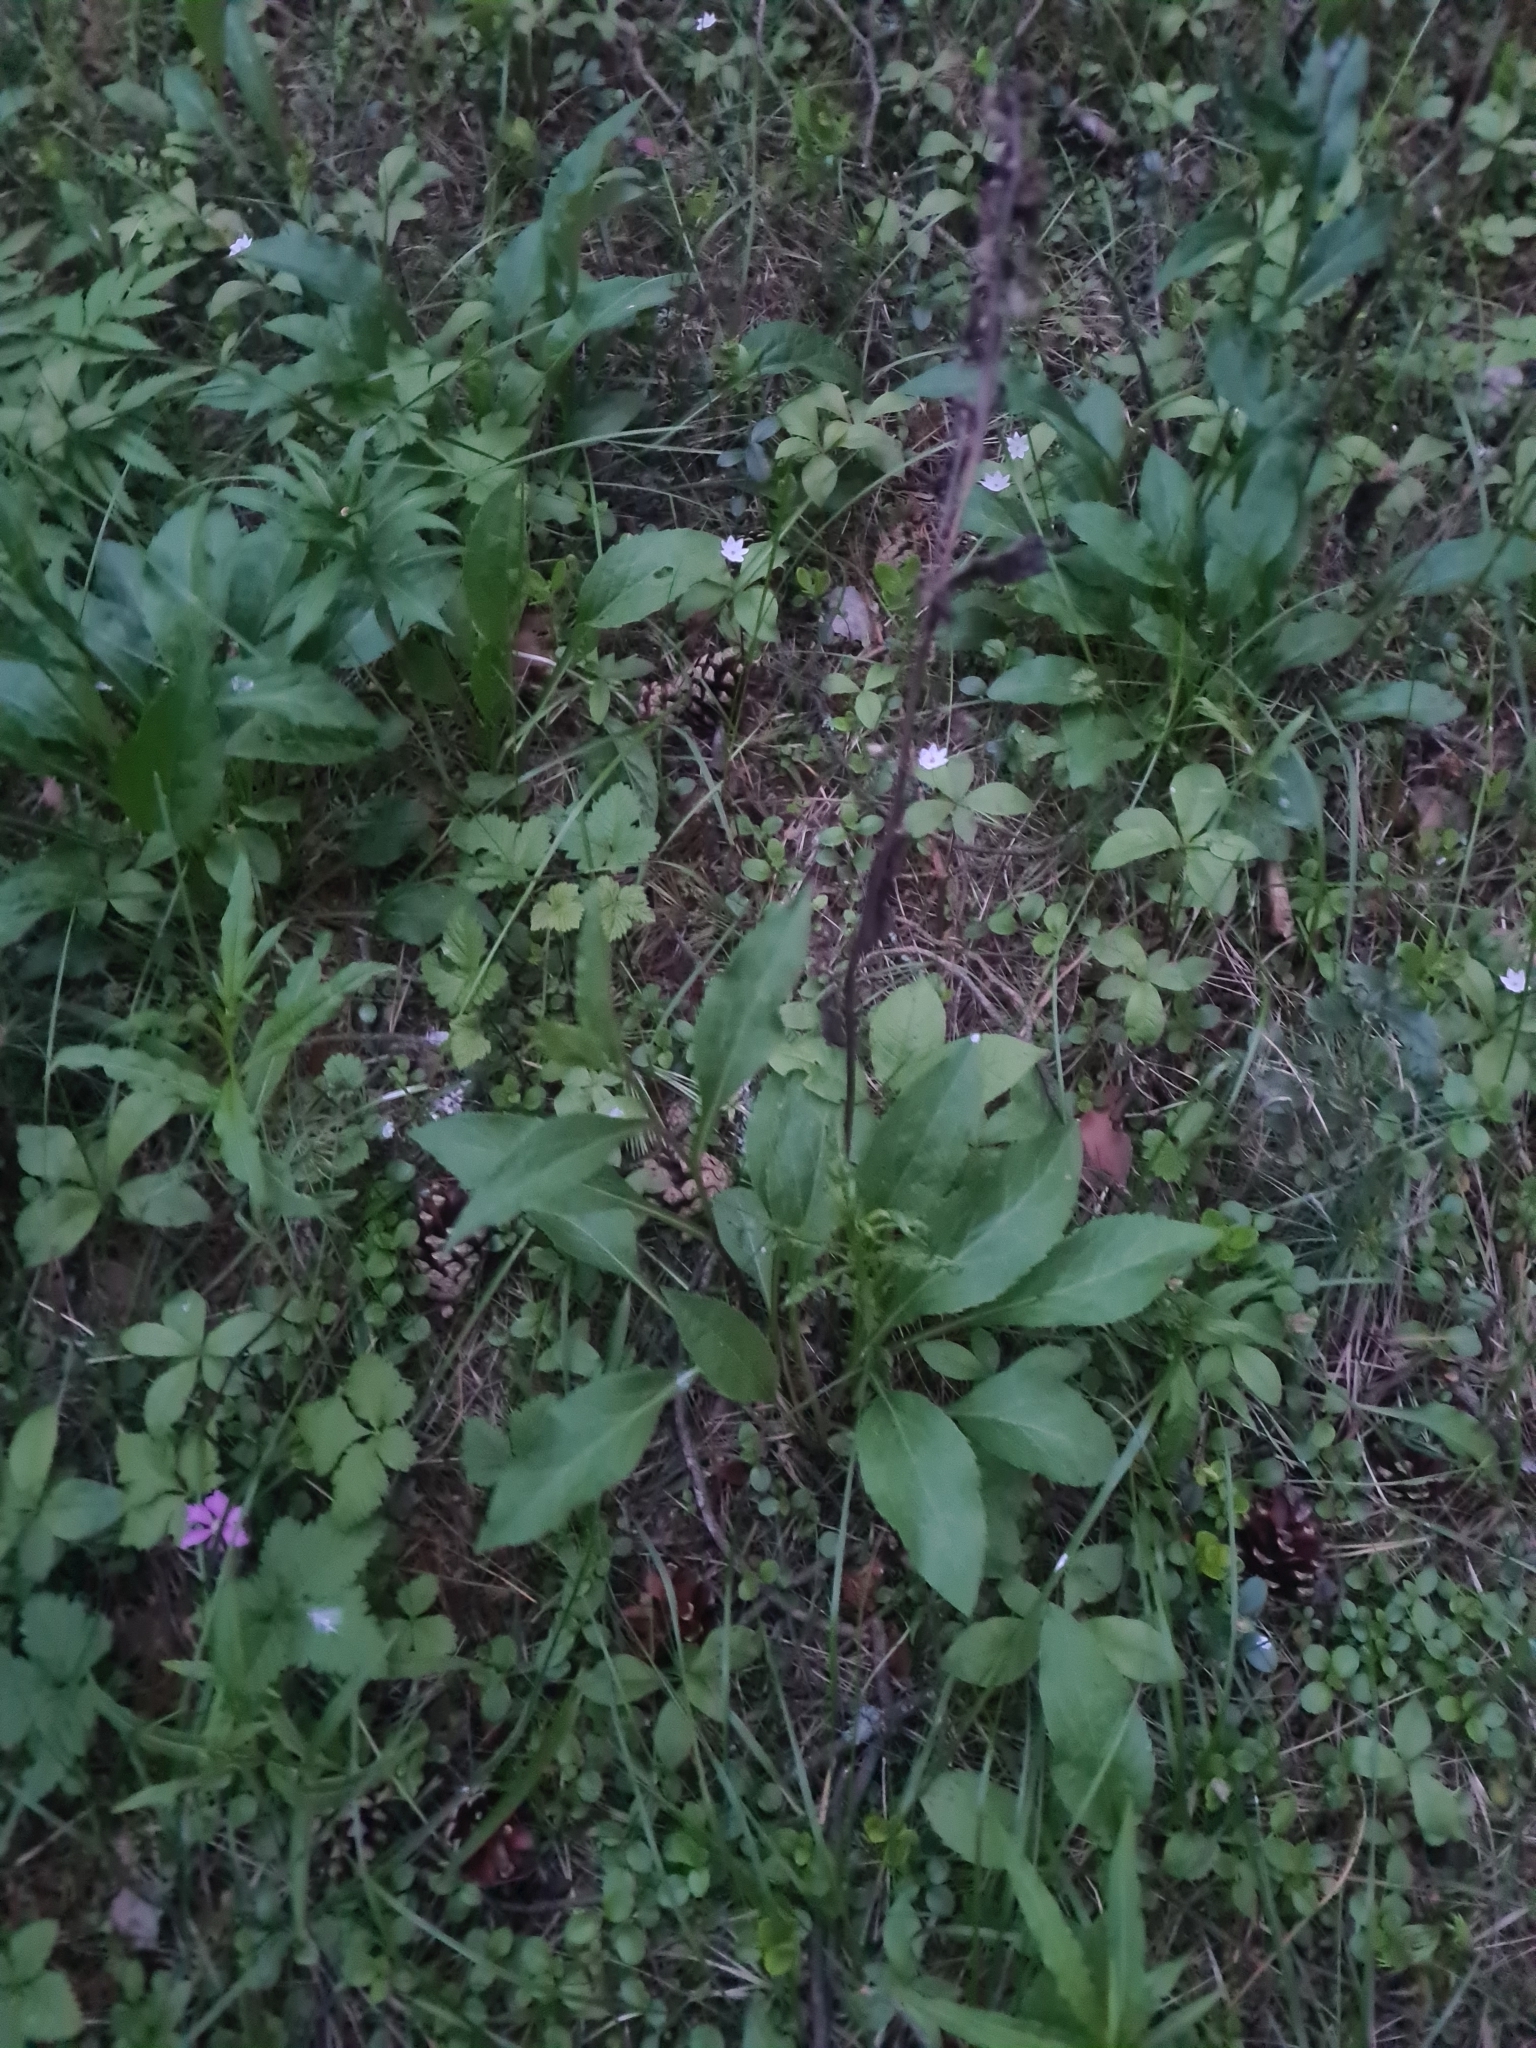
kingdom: Plantae
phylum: Tracheophyta
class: Magnoliopsida
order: Asterales
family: Asteraceae
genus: Hieracium
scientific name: Hieracium umbellatum
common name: Northern hawkweed
